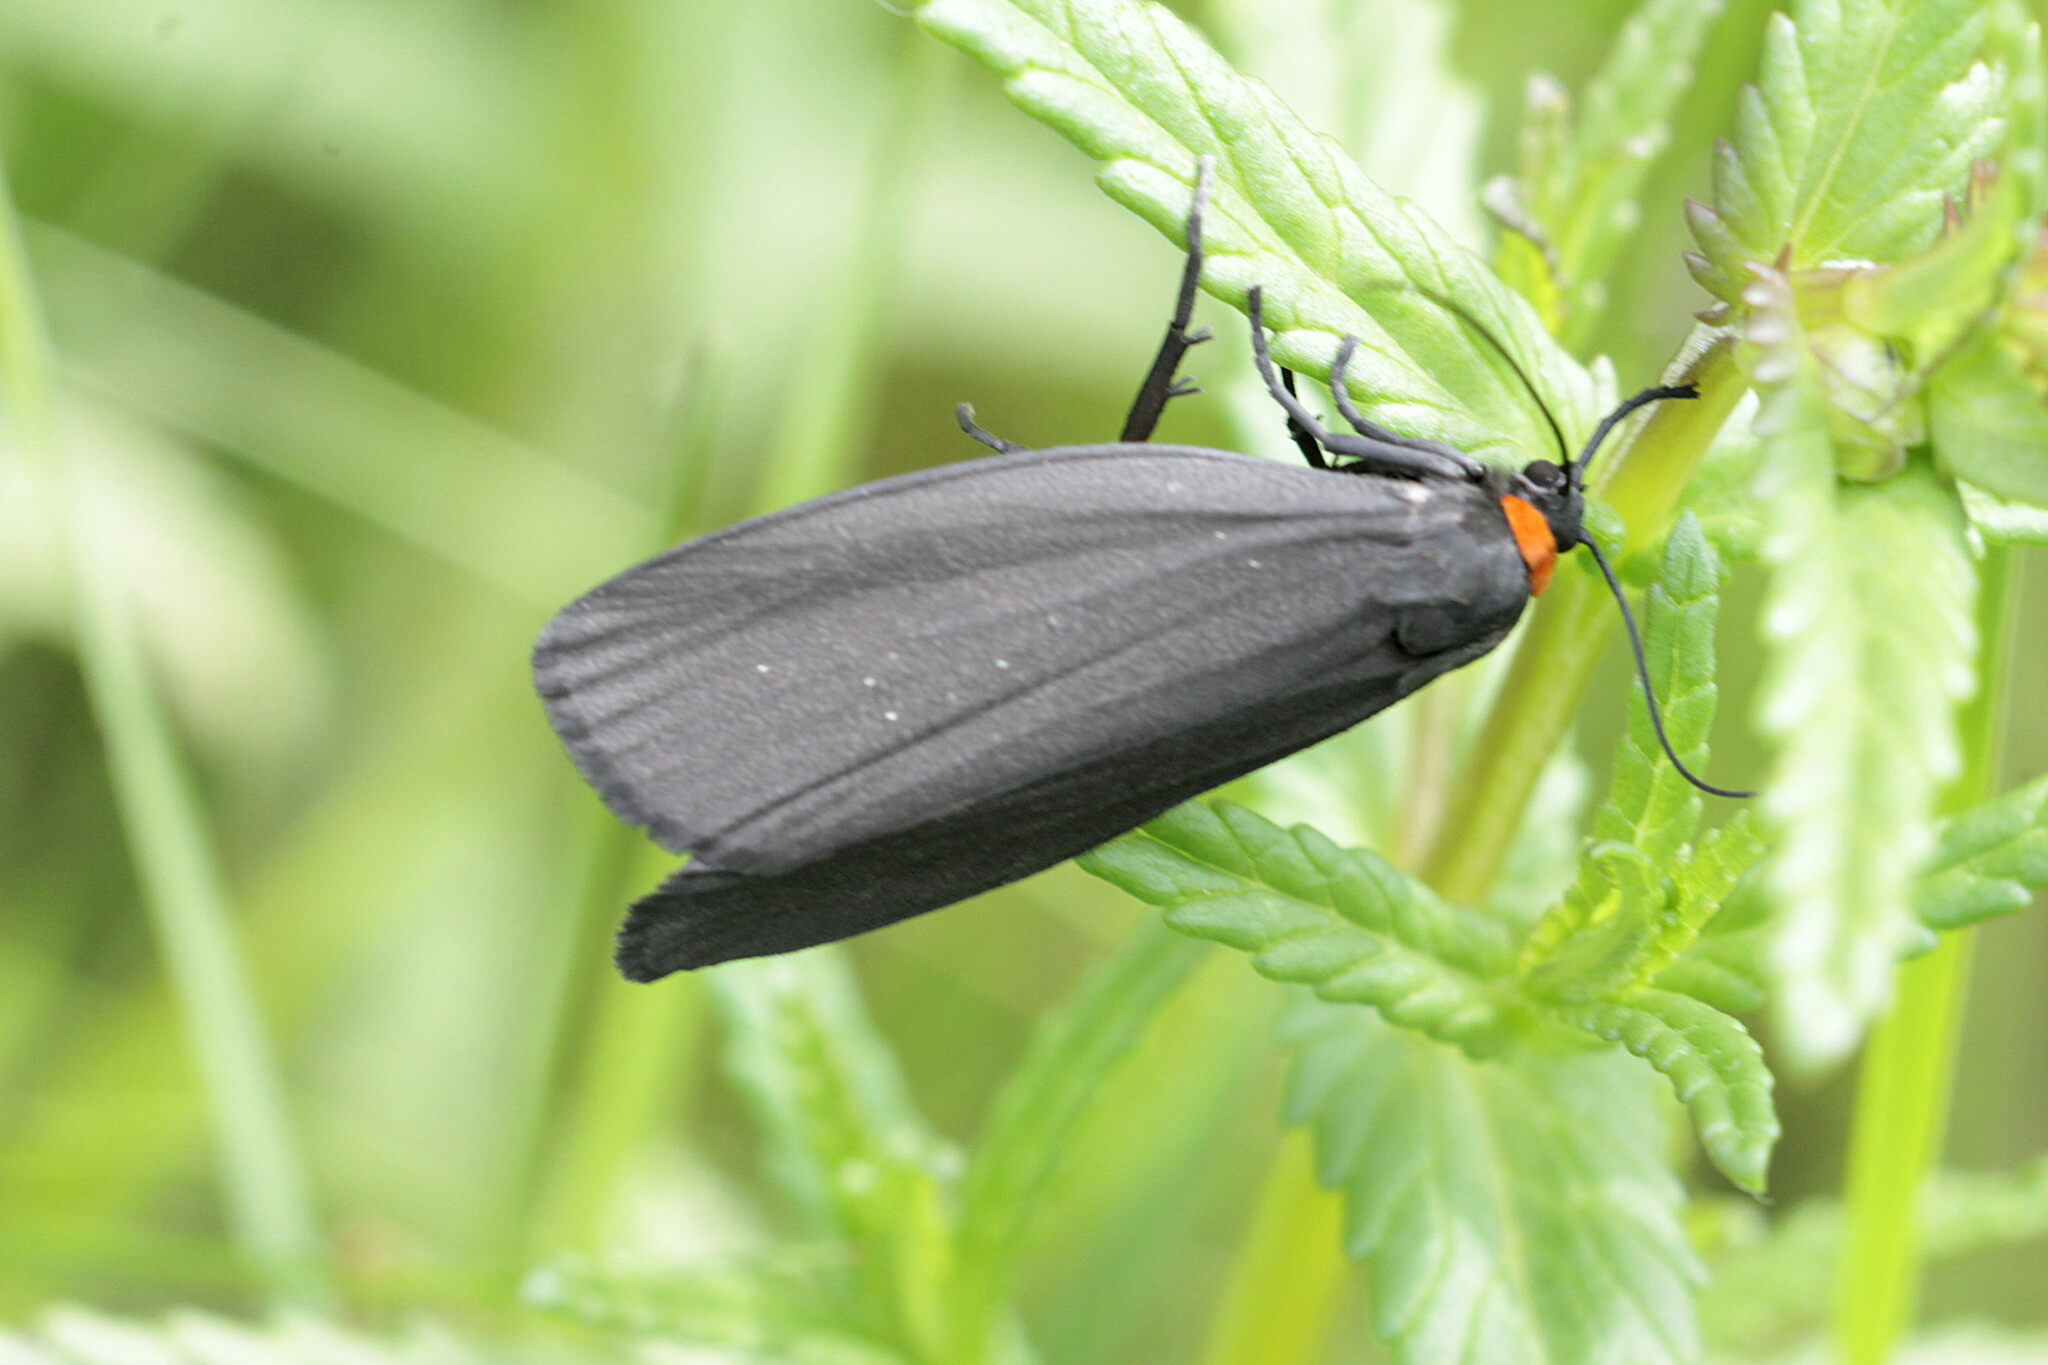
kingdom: Animalia
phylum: Arthropoda
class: Insecta
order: Lepidoptera
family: Erebidae
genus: Atolmis
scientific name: Atolmis rubricollis
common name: Red-necked footman
